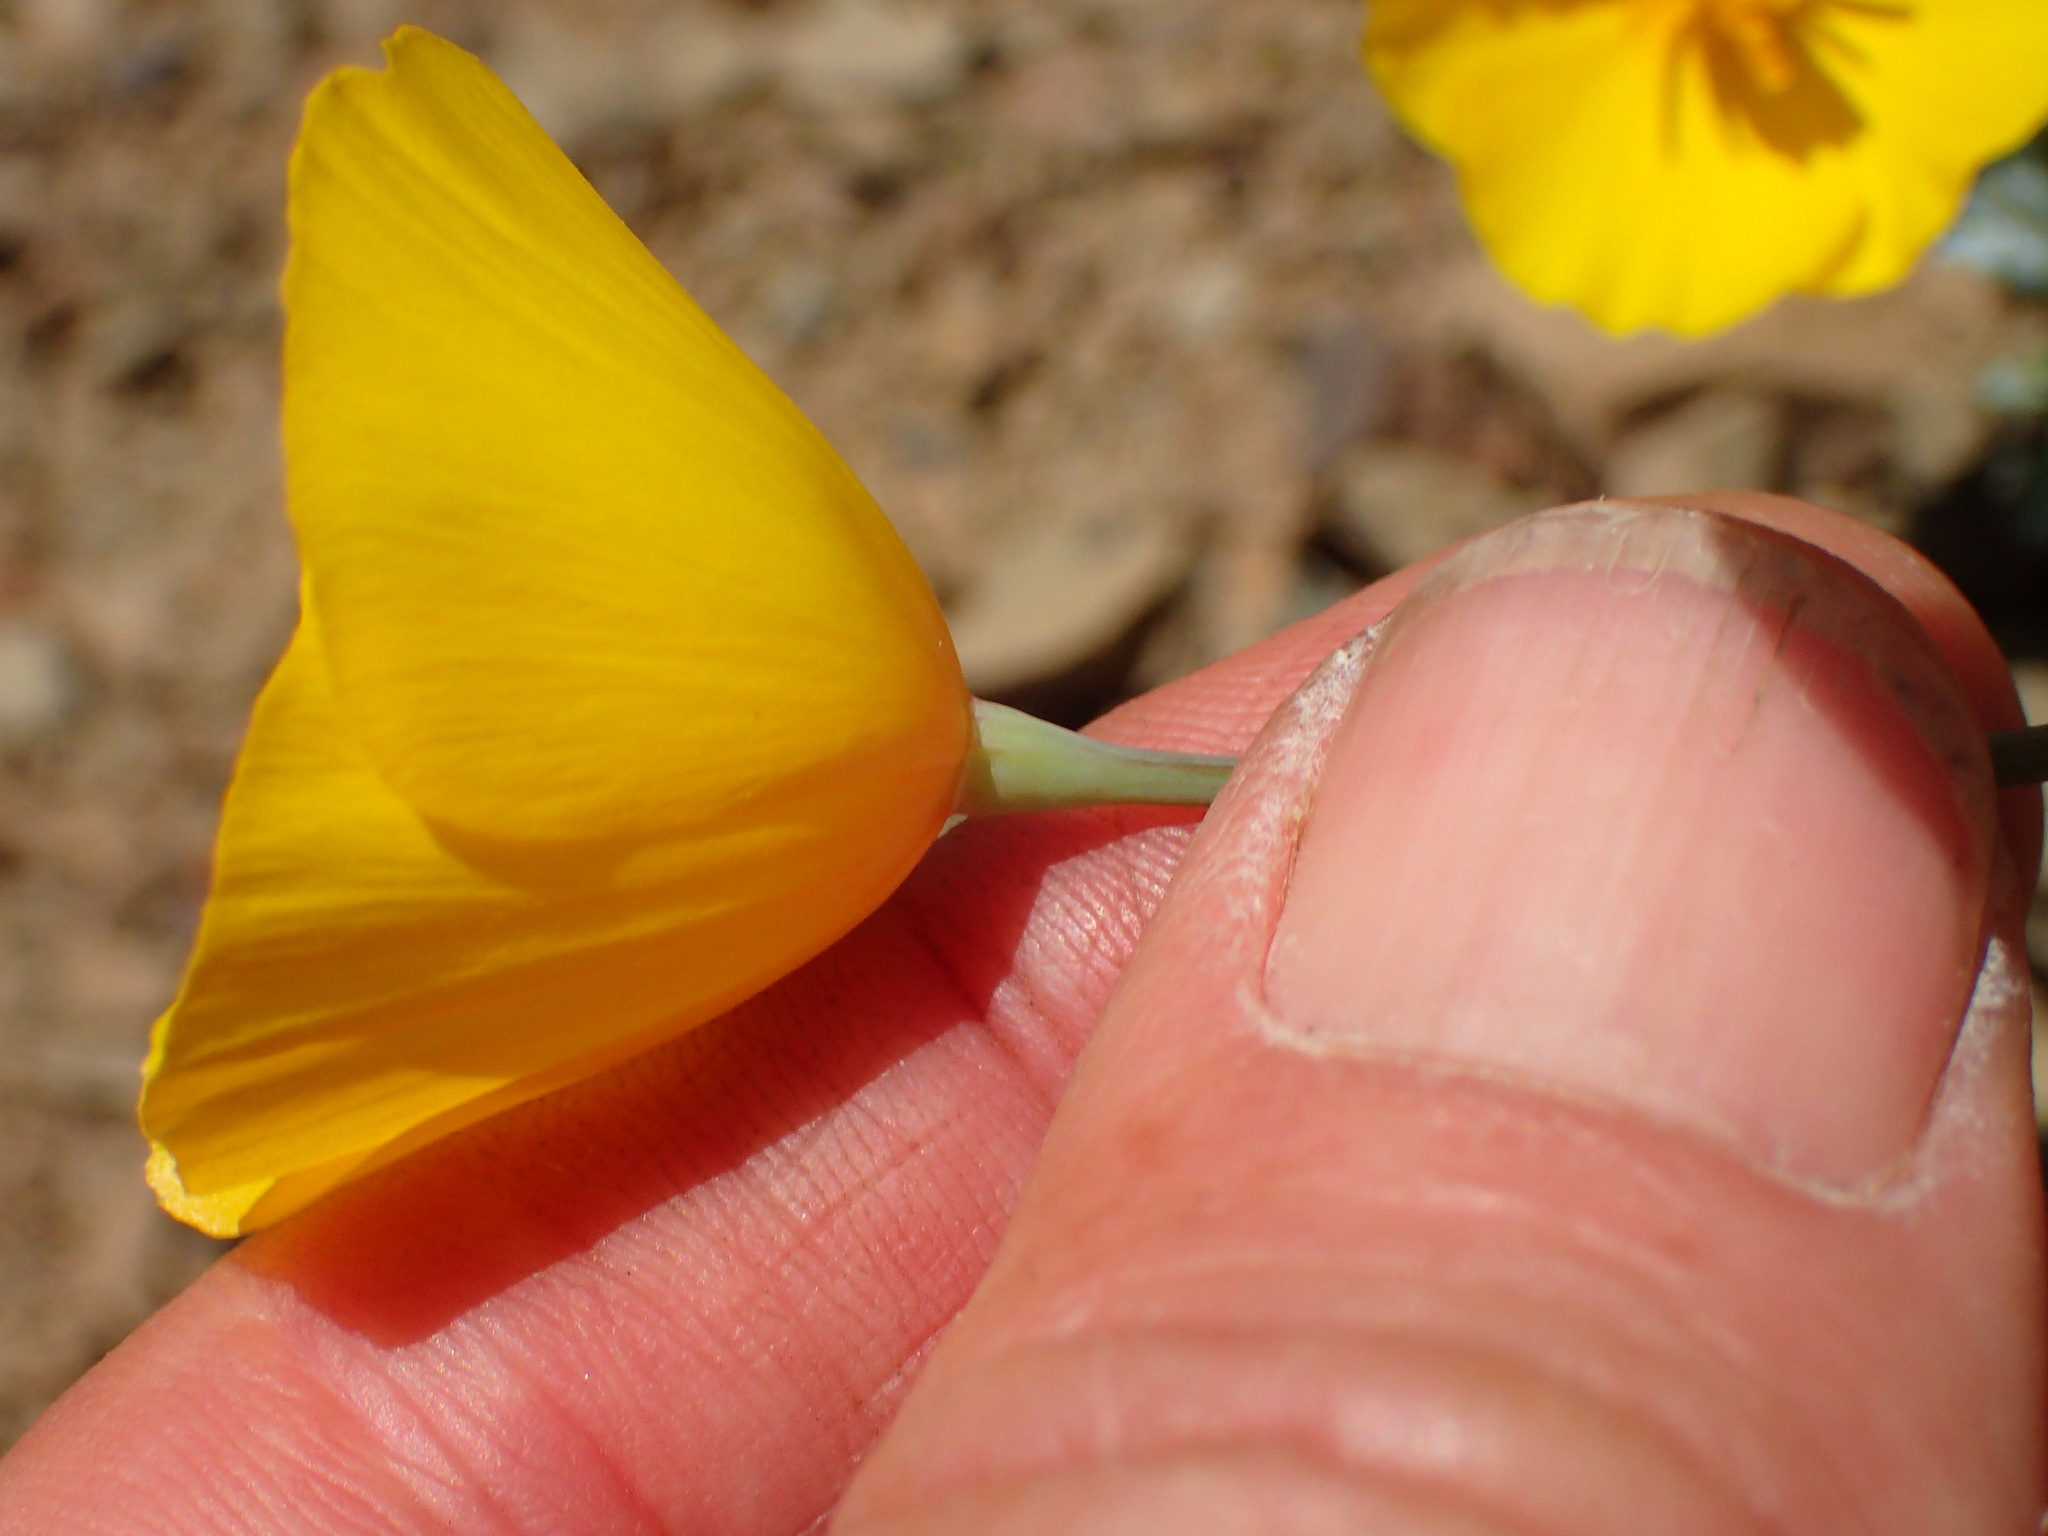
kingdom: Plantae
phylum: Tracheophyta
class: Magnoliopsida
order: Ranunculales
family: Papaveraceae
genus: Eschscholzia
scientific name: Eschscholzia caespitosa
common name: Tufted california-poppy
